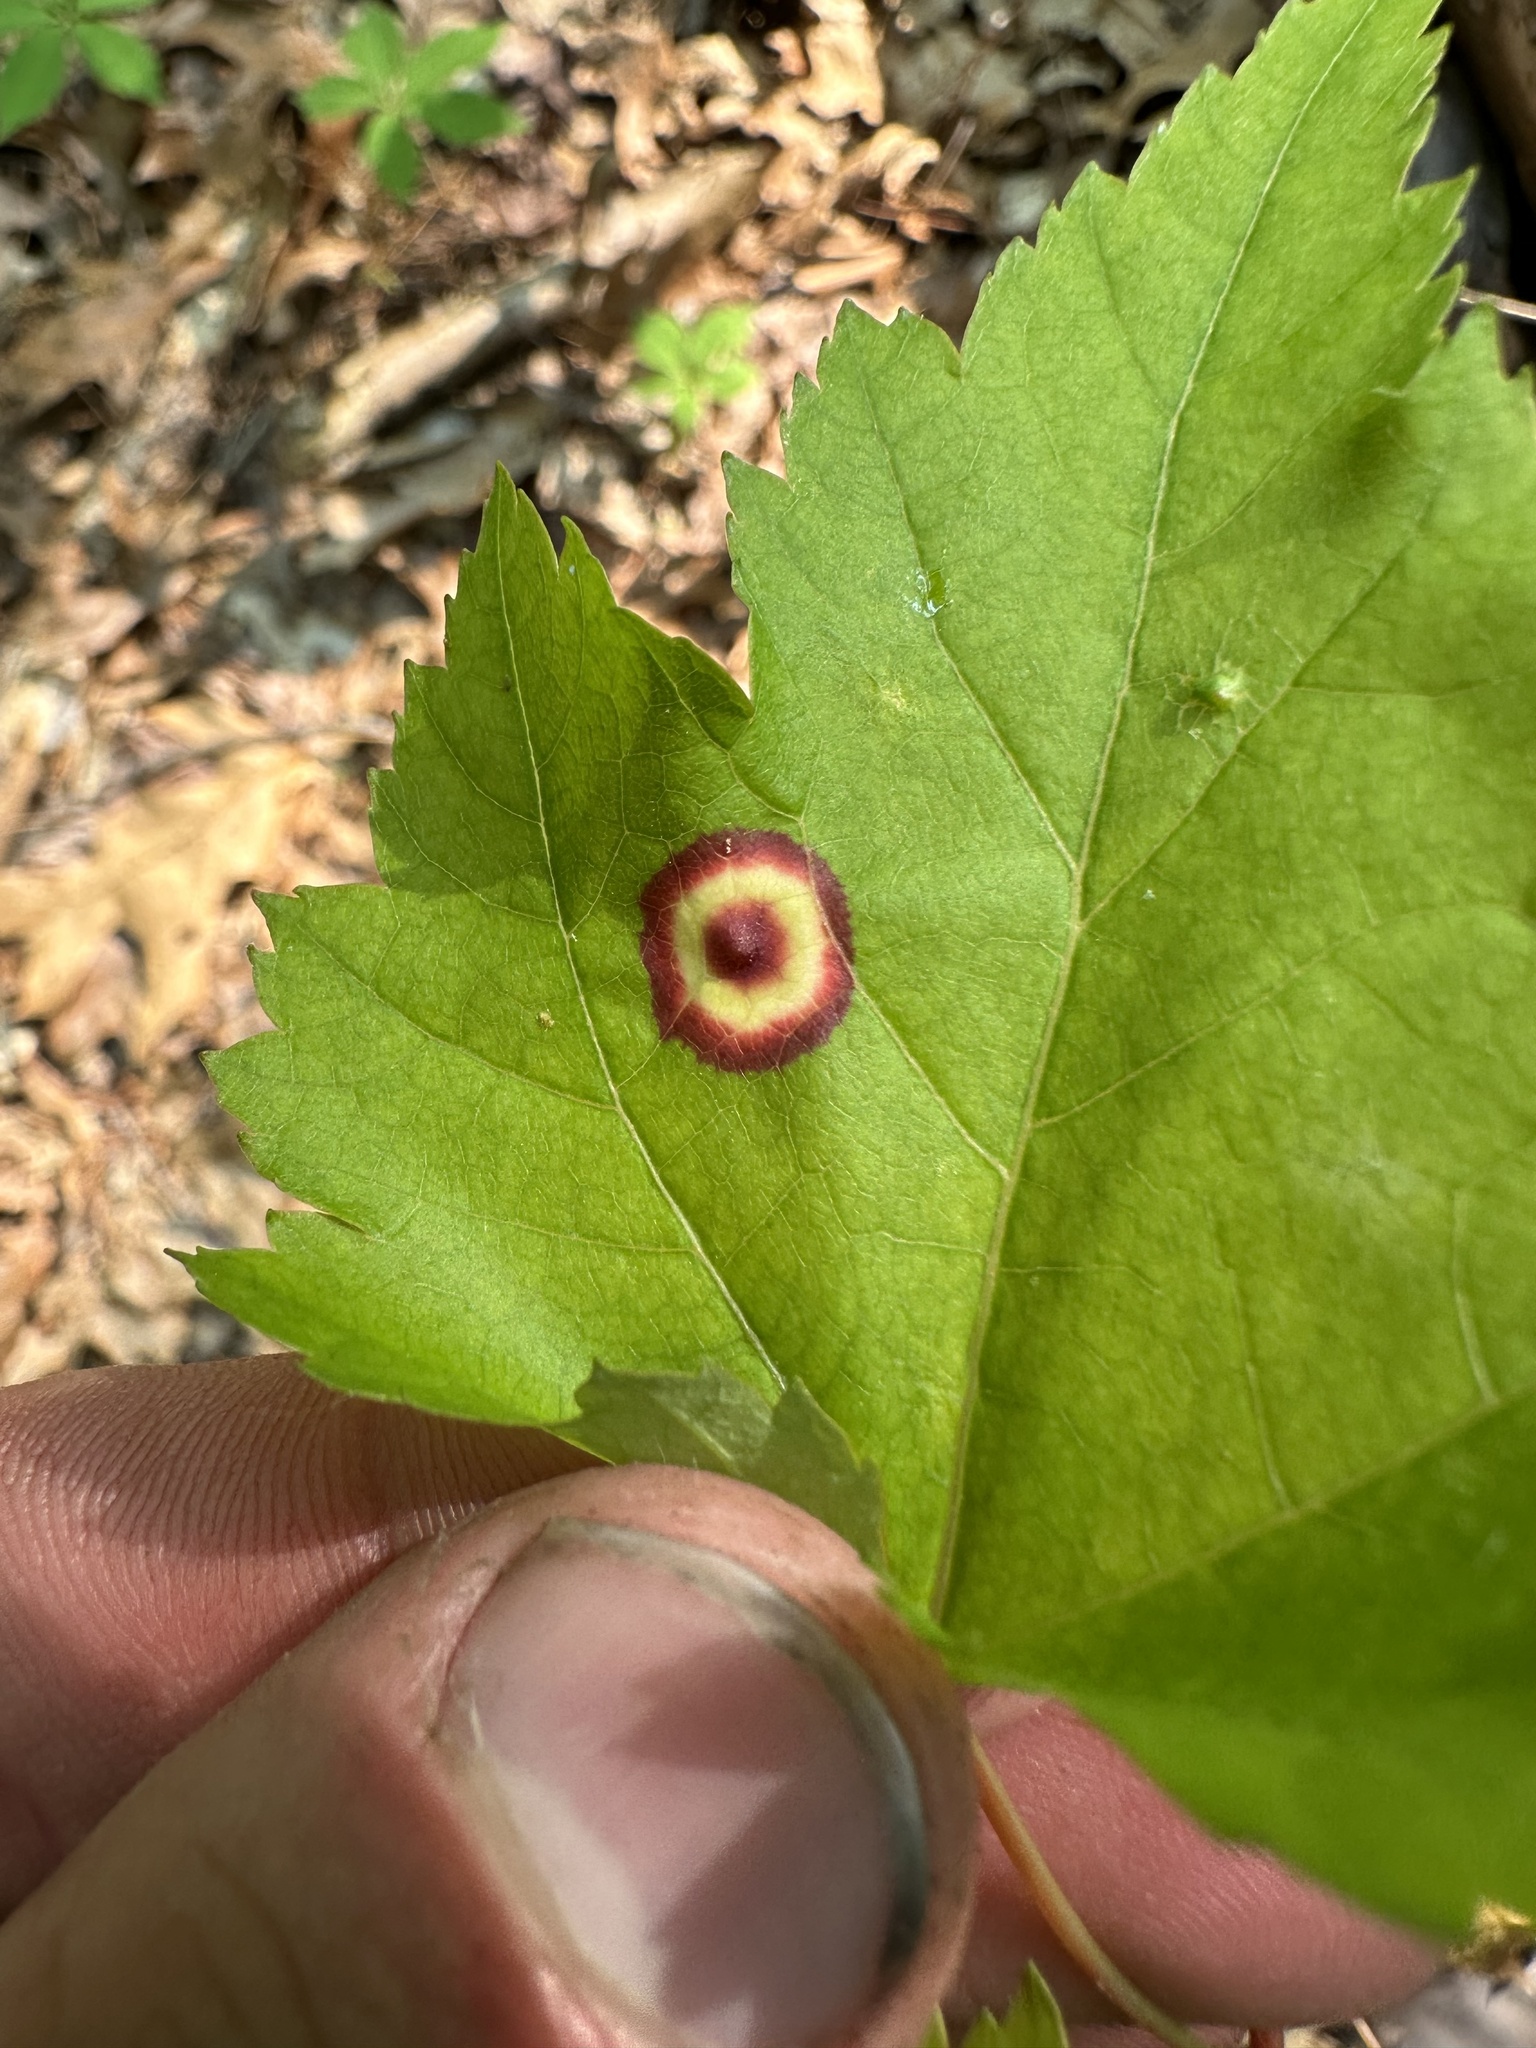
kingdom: Animalia
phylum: Arthropoda
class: Insecta
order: Diptera
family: Cecidomyiidae
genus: Acericecis
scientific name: Acericecis ocellaris
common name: Ocellate gall midge
